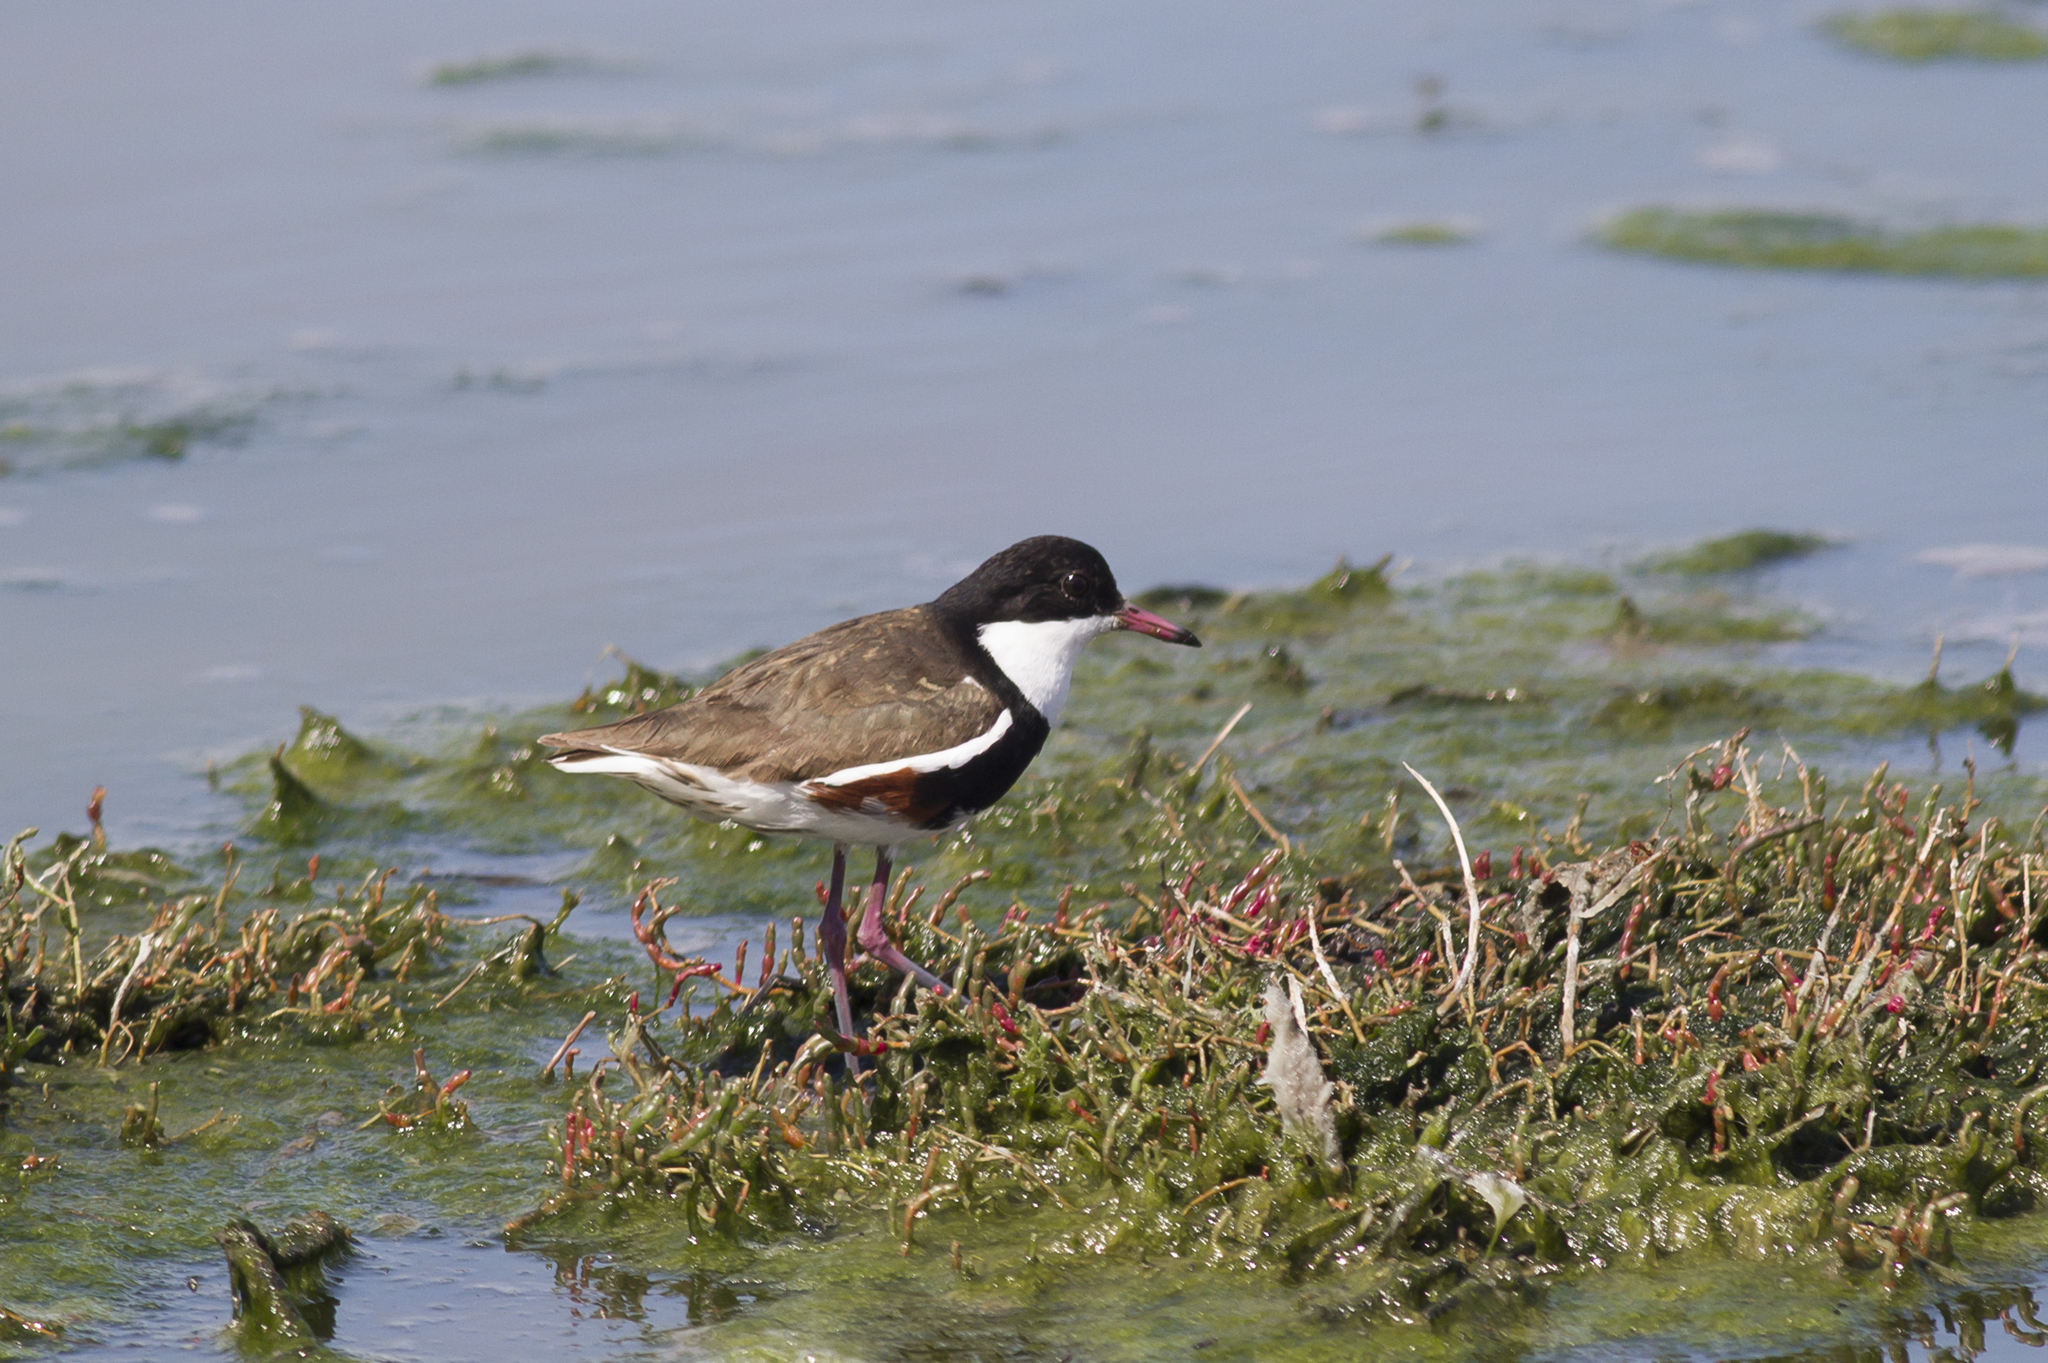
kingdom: Animalia
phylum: Chordata
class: Aves
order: Charadriiformes
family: Charadriidae
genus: Erythrogonys
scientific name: Erythrogonys cinctus
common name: Red-kneed dotterel
